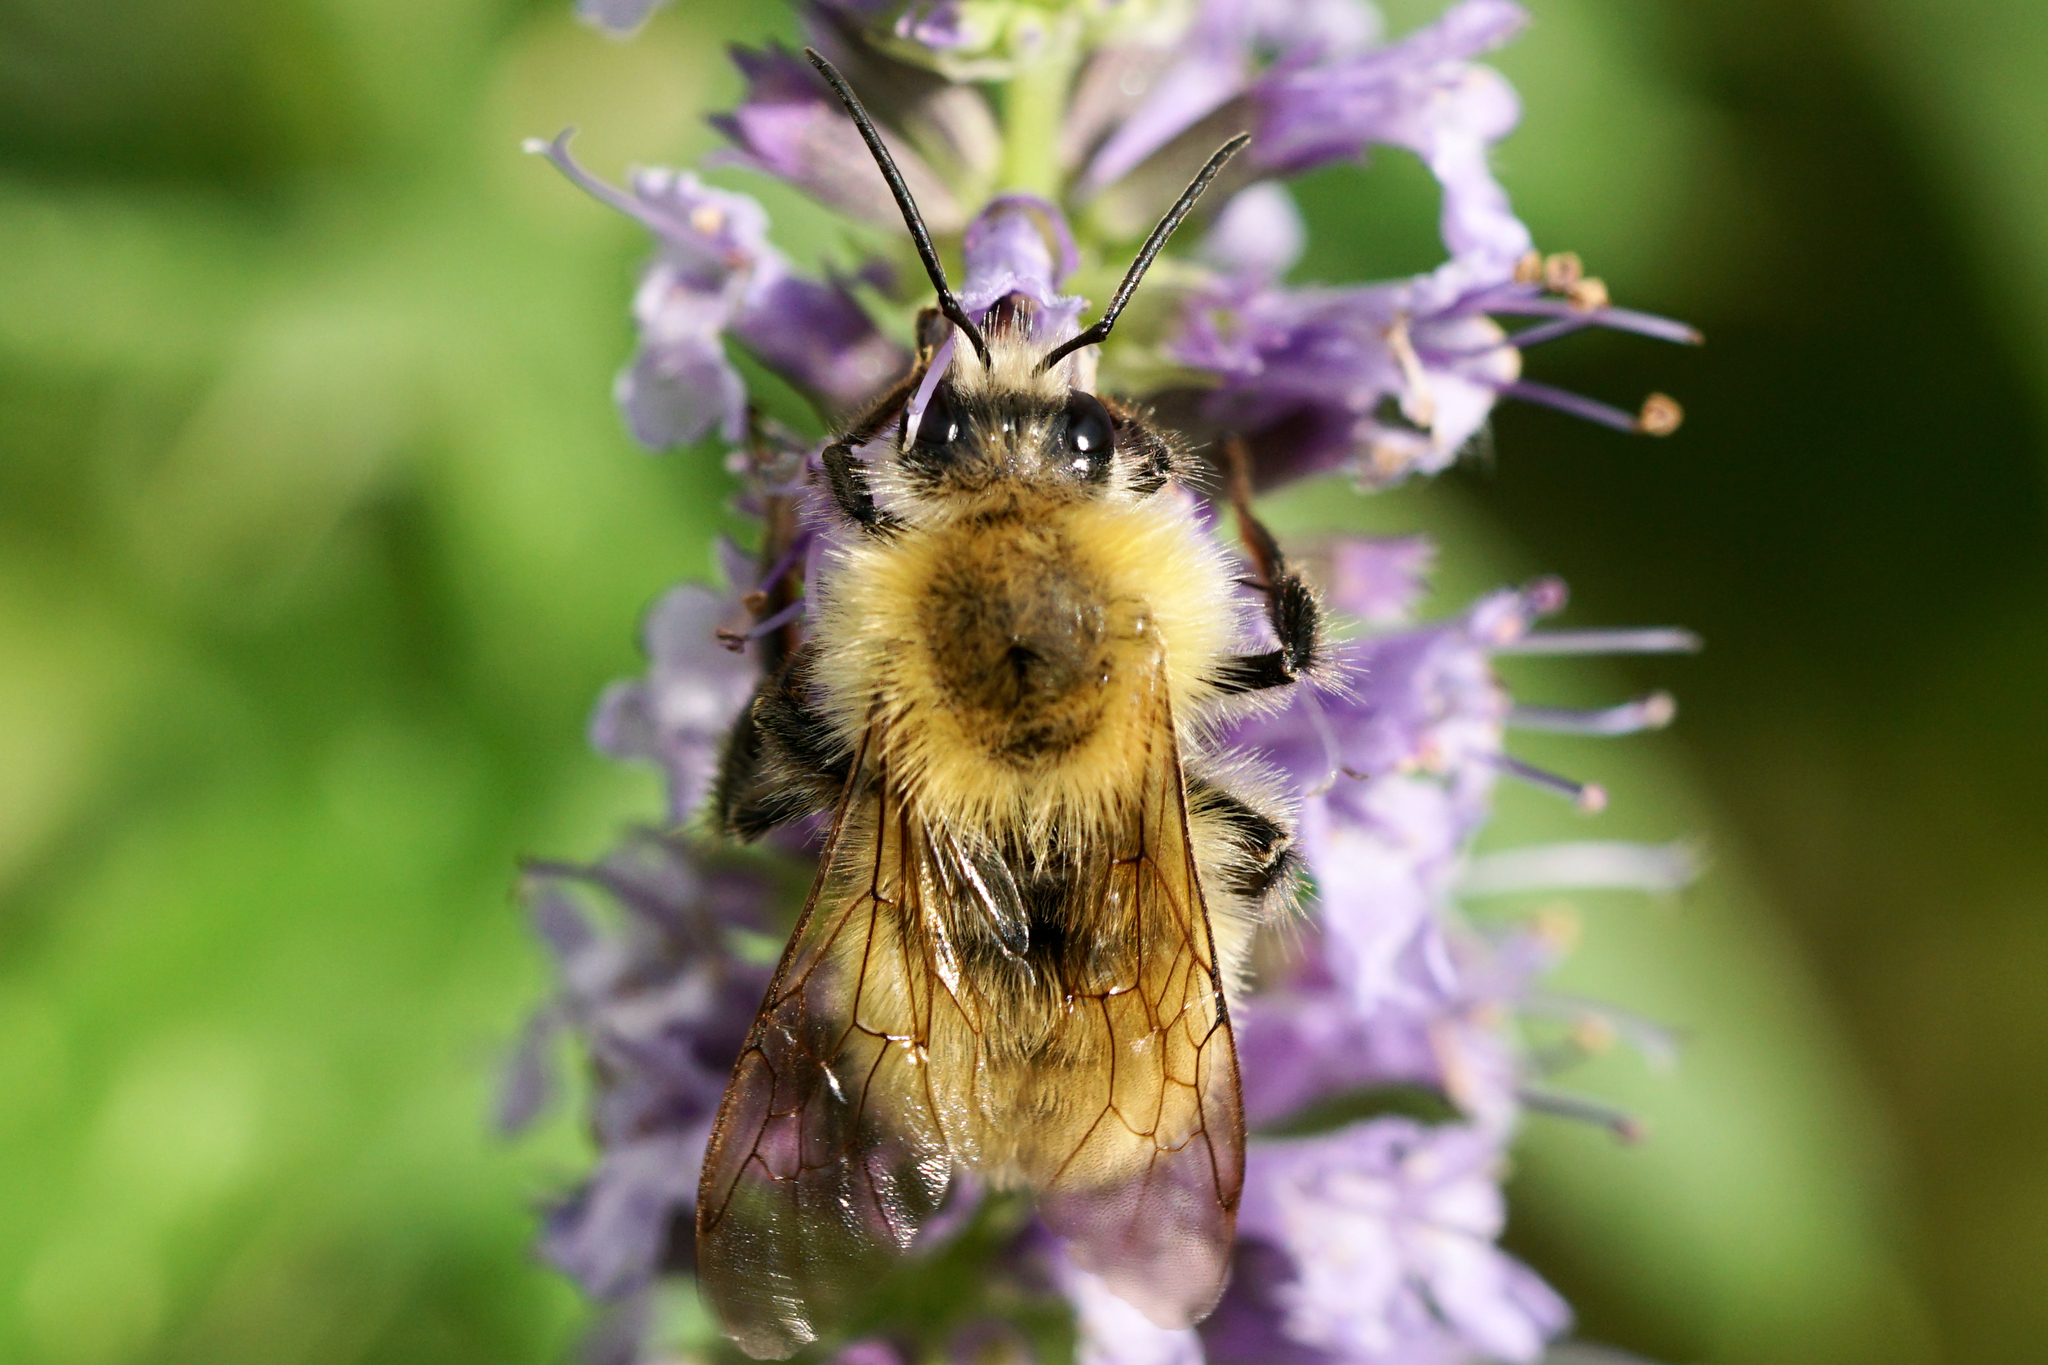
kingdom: Animalia
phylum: Arthropoda
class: Insecta
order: Hymenoptera
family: Apidae
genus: Bombus
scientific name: Bombus perplexus
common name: Confusing bumble bee
